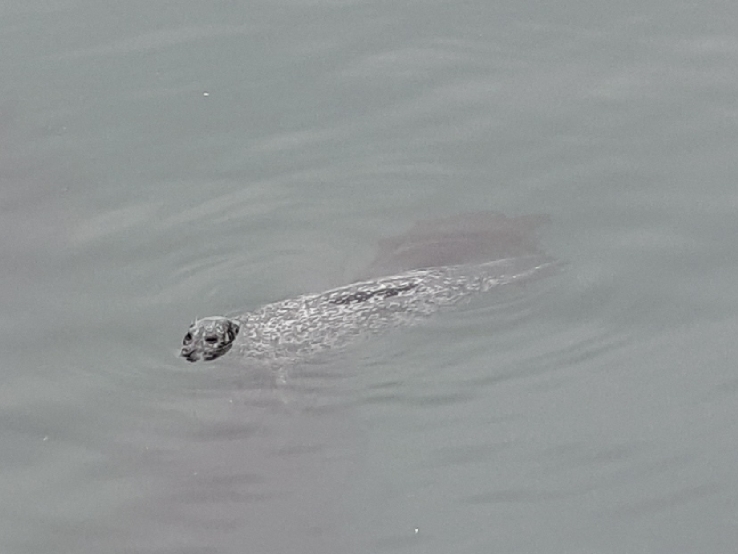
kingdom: Animalia
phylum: Chordata
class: Mammalia
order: Carnivora
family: Phocidae
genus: Phoca
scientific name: Phoca vitulina
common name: Harbor seal
